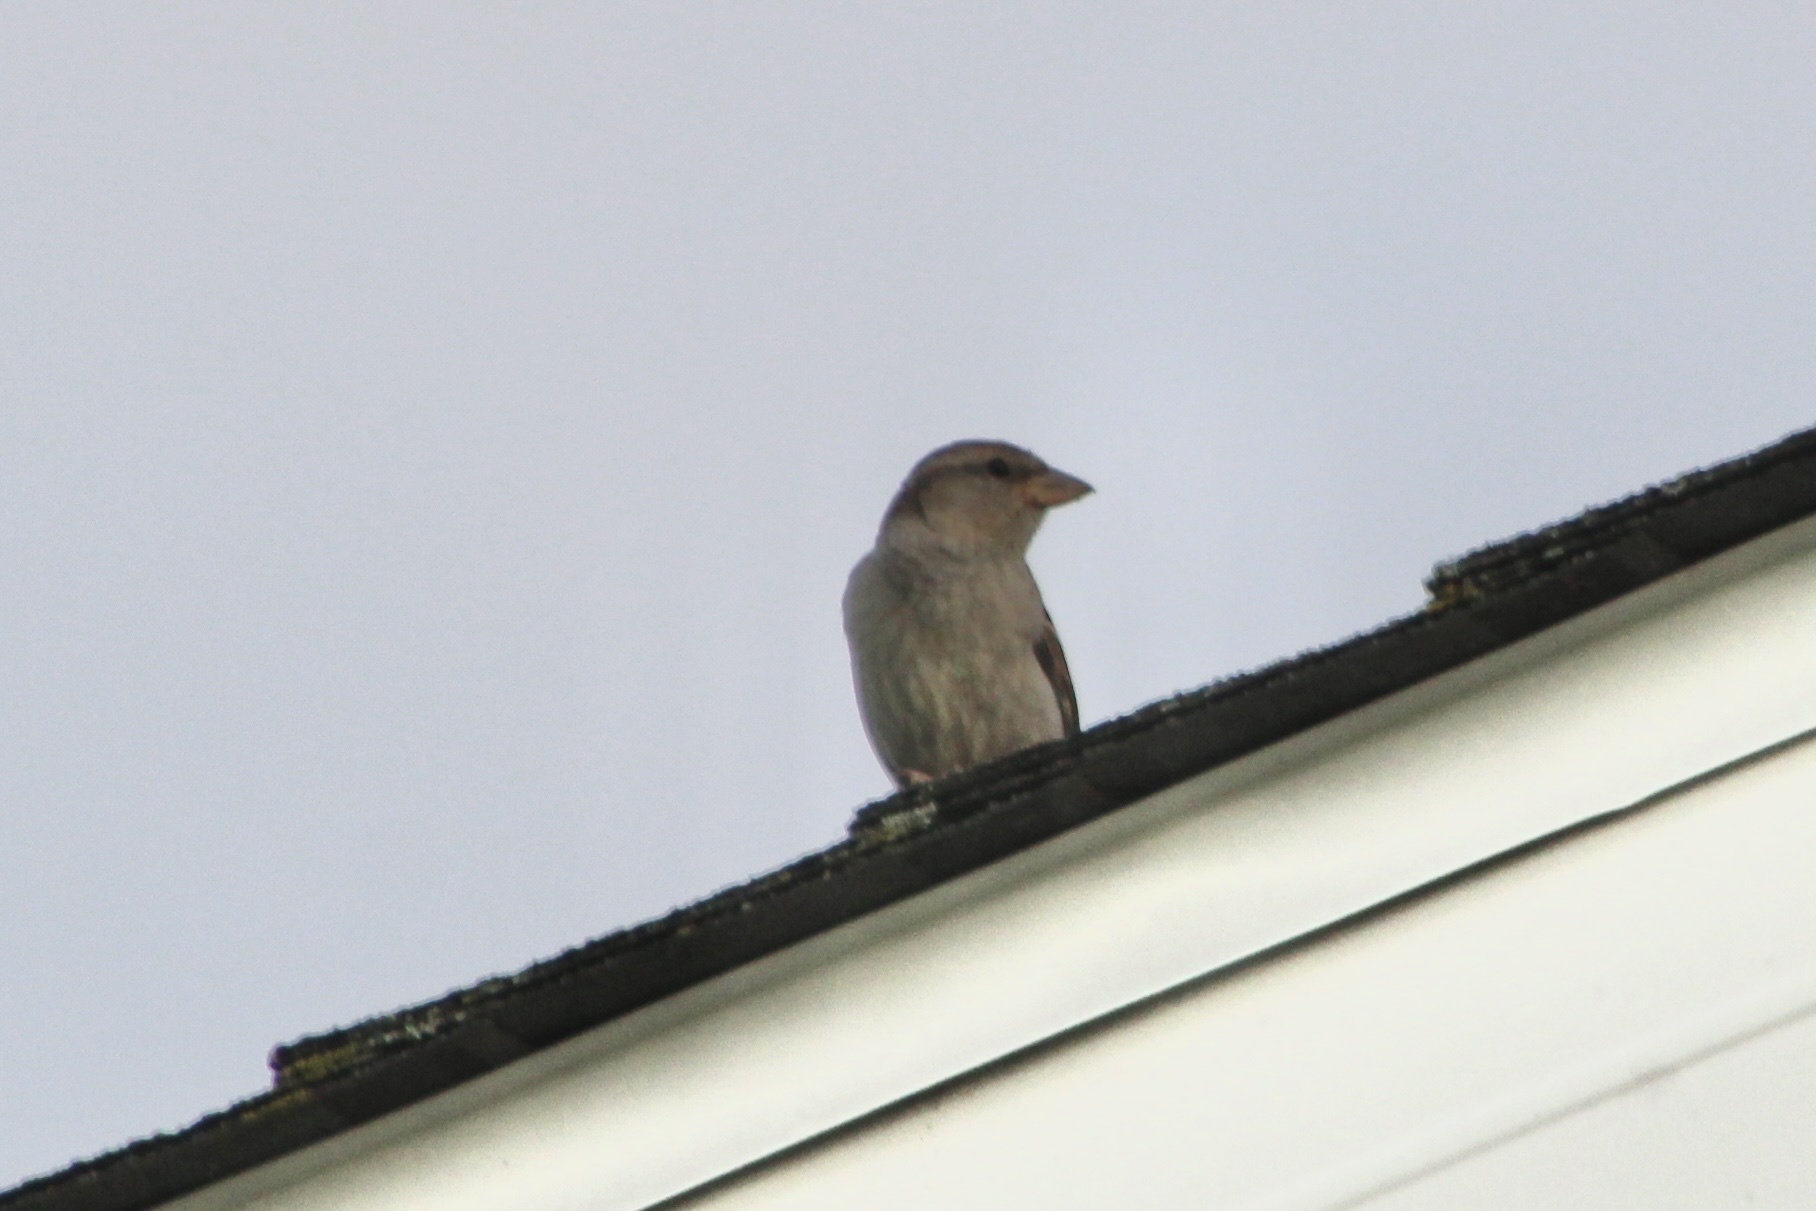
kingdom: Animalia
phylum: Chordata
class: Aves
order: Passeriformes
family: Passeridae
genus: Passer
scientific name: Passer domesticus
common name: House sparrow
